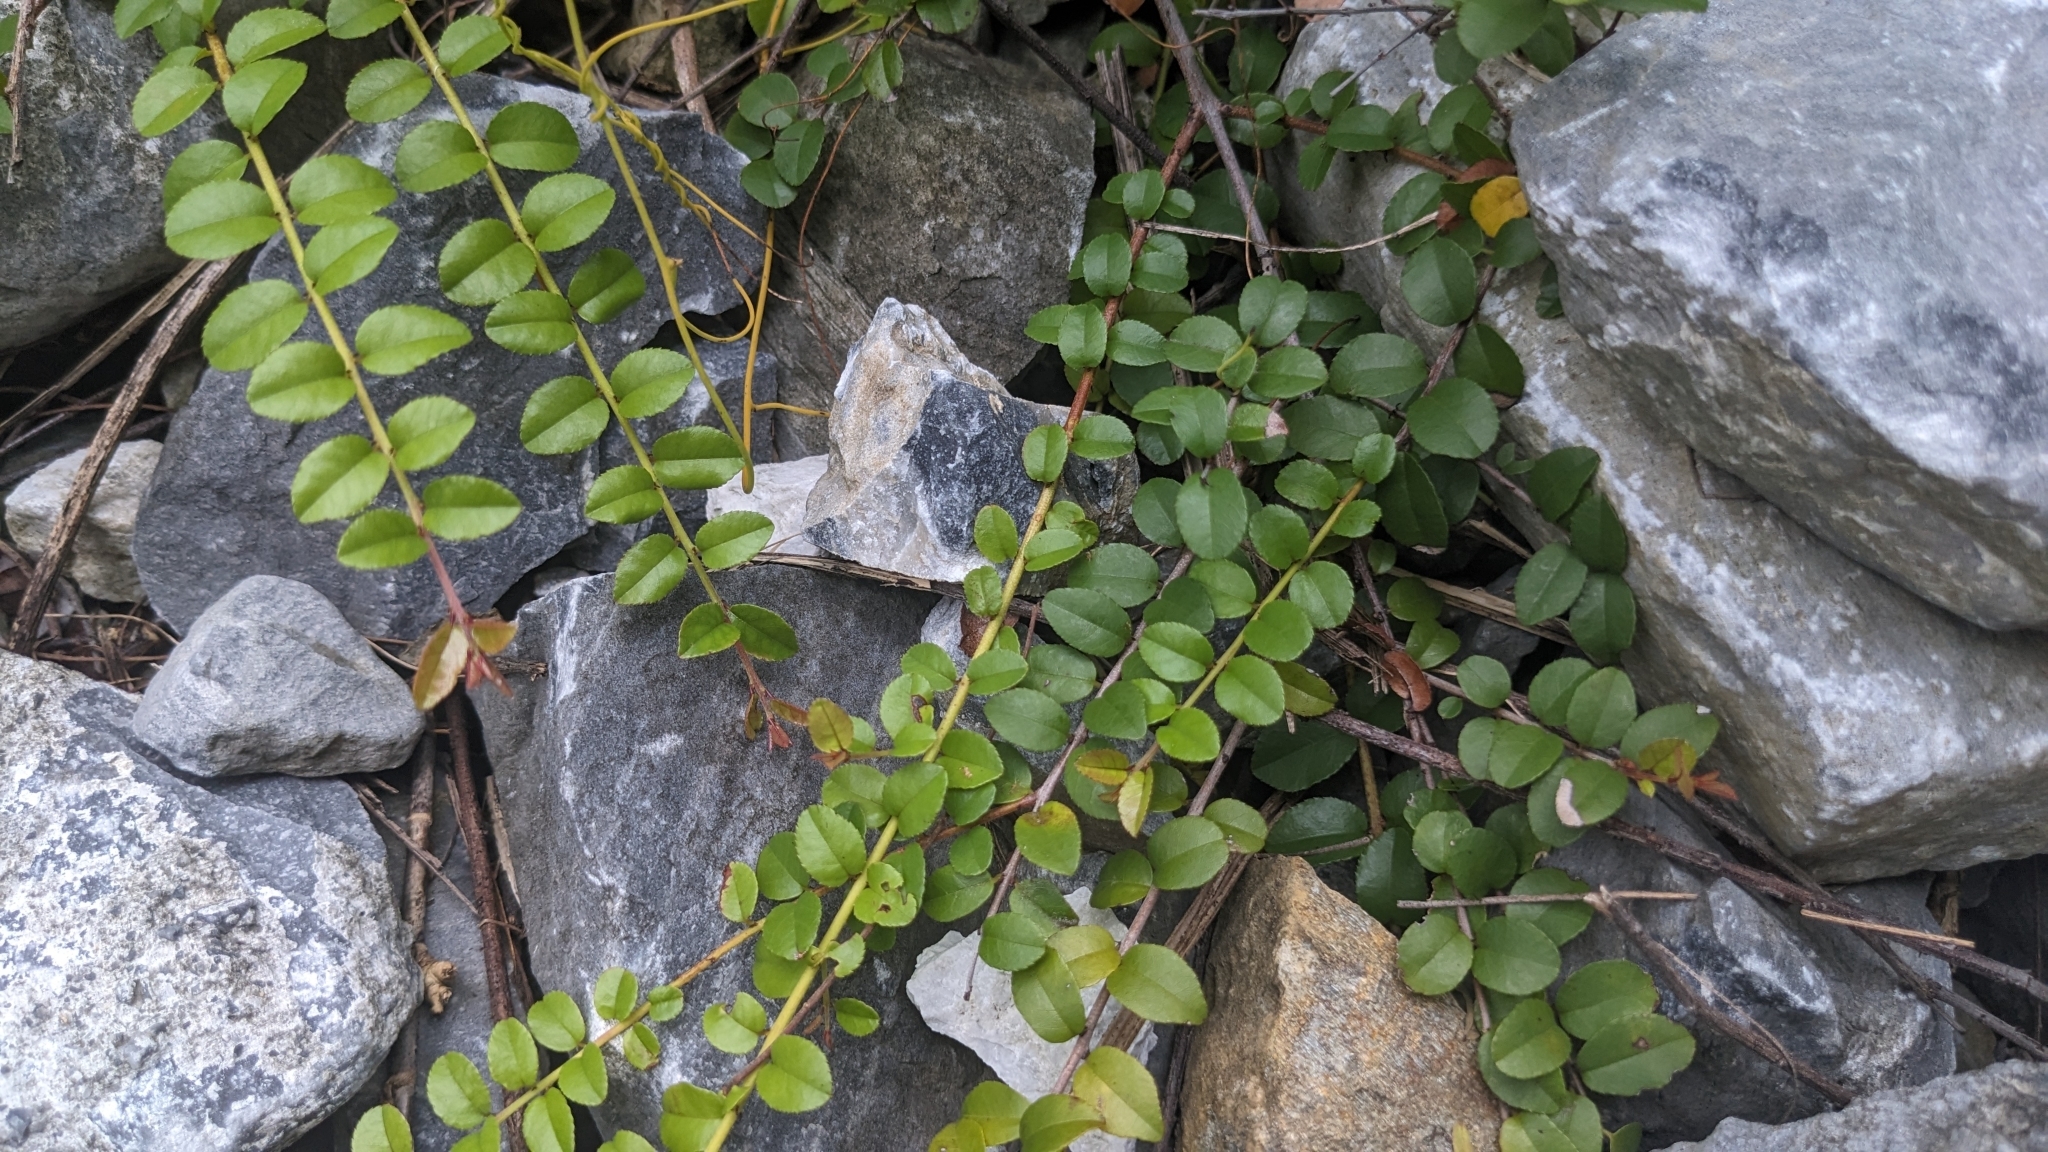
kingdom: Plantae
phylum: Tracheophyta
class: Magnoliopsida
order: Rosales
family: Rhamnaceae
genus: Sageretia
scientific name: Sageretia thea
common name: Pauper's-tea
